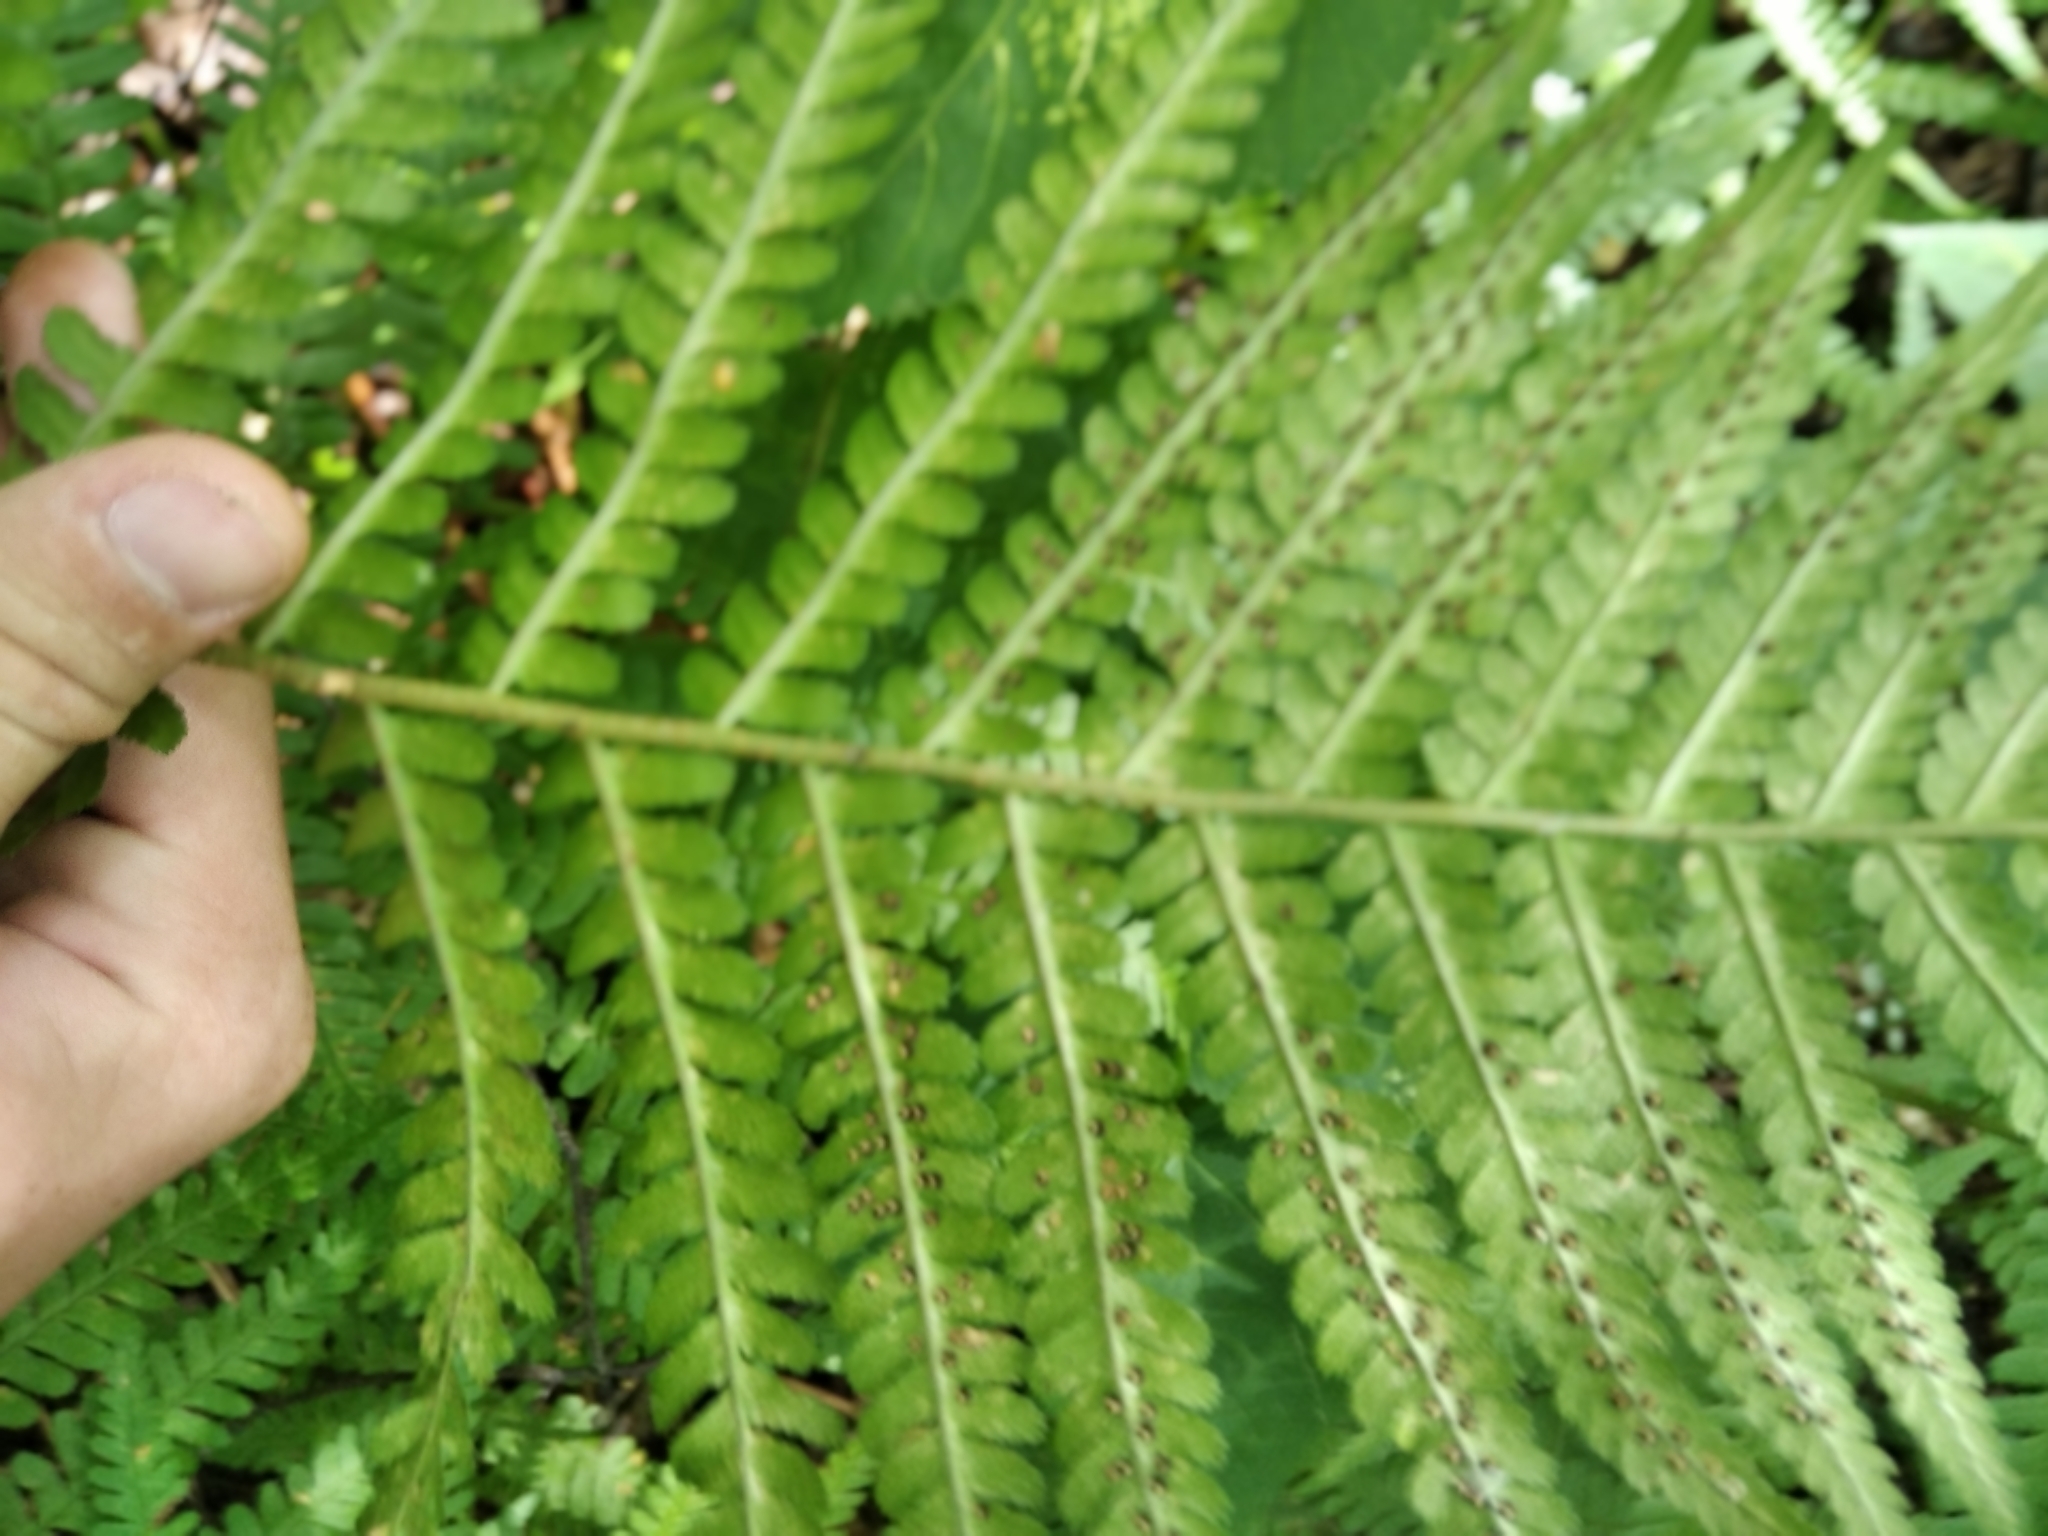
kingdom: Plantae
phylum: Tracheophyta
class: Polypodiopsida
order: Polypodiales
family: Dryopteridaceae
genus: Dryopteris
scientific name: Dryopteris filix-mas
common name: Male fern
